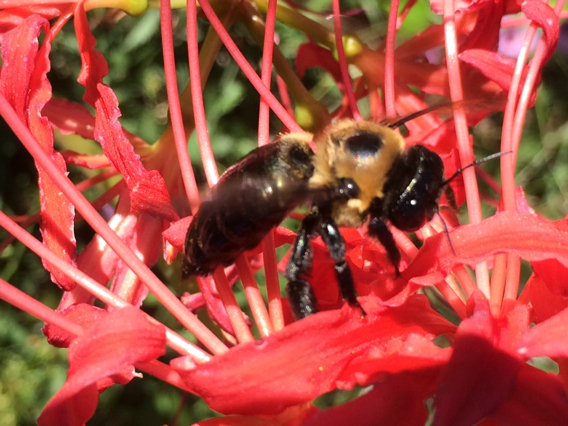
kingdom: Animalia
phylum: Arthropoda
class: Insecta
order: Hymenoptera
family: Apidae
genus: Xylocopa
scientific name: Xylocopa virginica
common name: Carpenter bee
